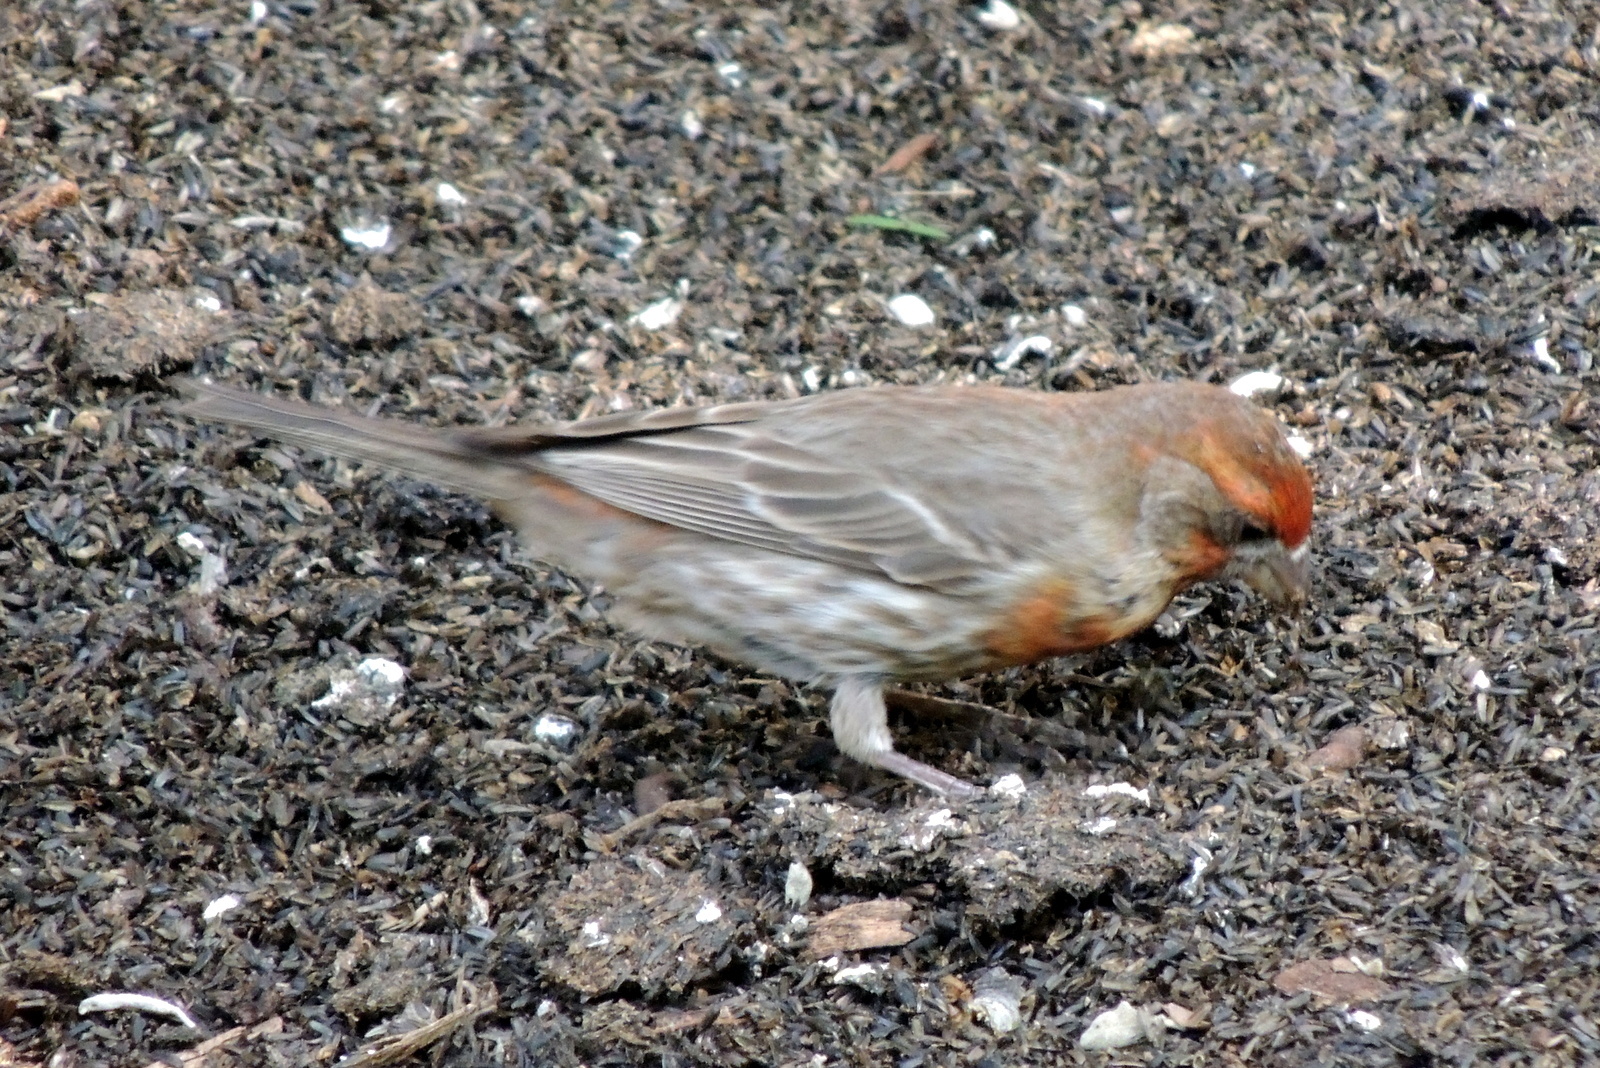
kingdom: Animalia
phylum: Chordata
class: Aves
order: Passeriformes
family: Fringillidae
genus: Haemorhous
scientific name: Haemorhous mexicanus
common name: House finch
